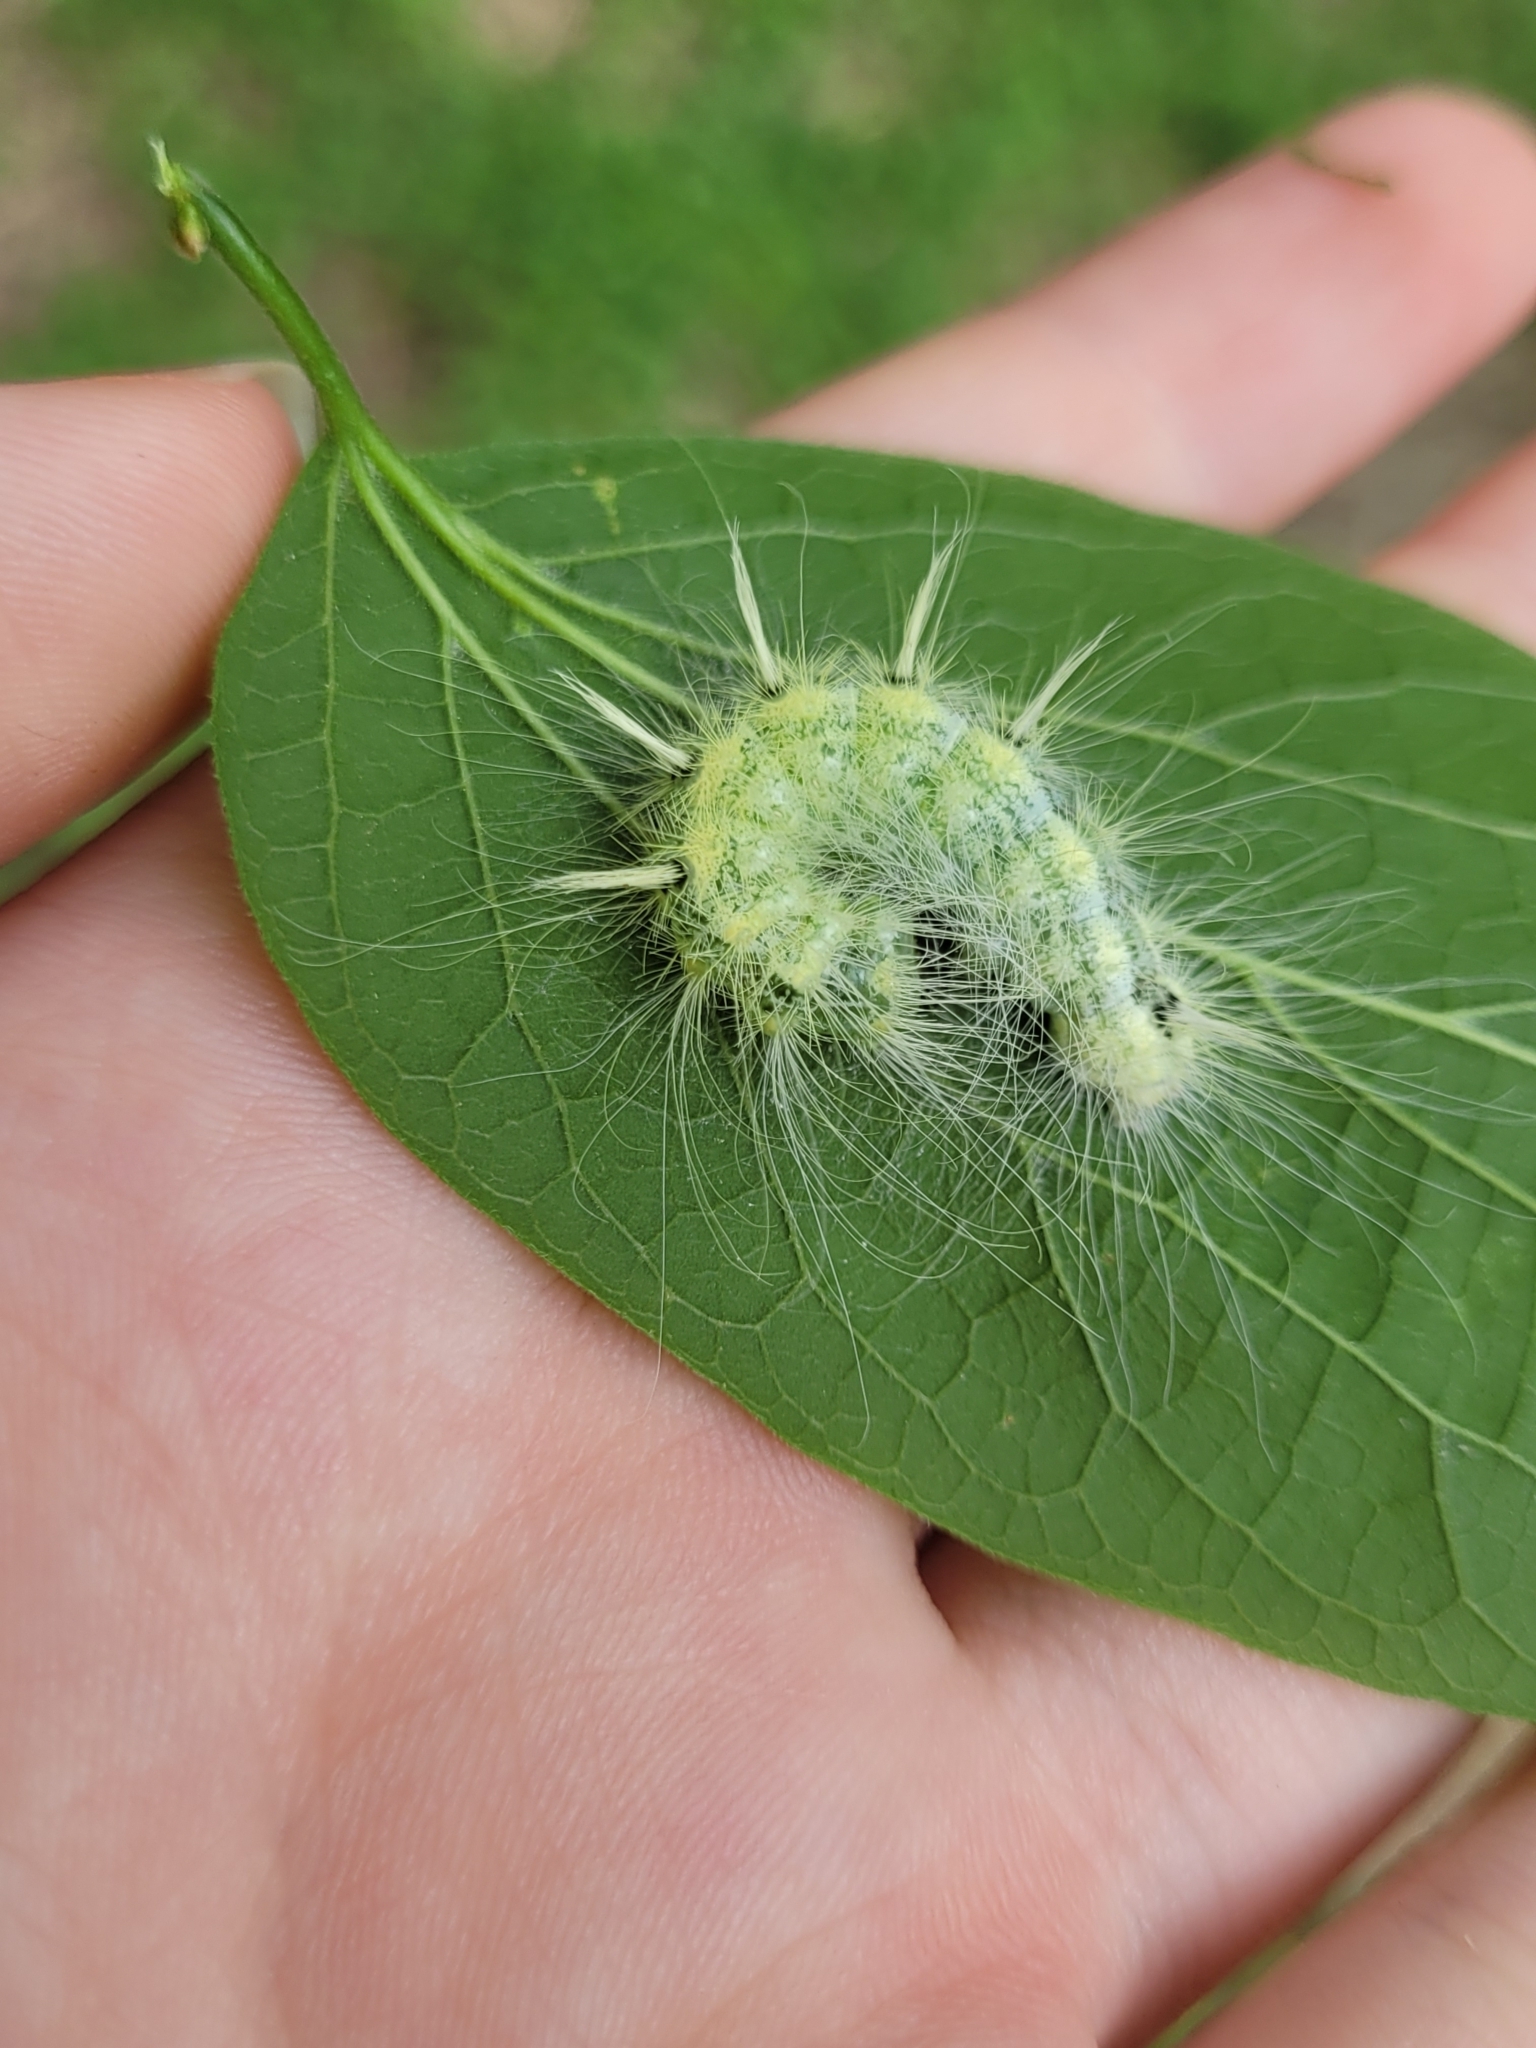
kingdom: Animalia
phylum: Arthropoda
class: Insecta
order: Lepidoptera
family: Noctuidae
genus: Acronicta
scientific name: Acronicta rubricoma
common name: Hackberry dagger
